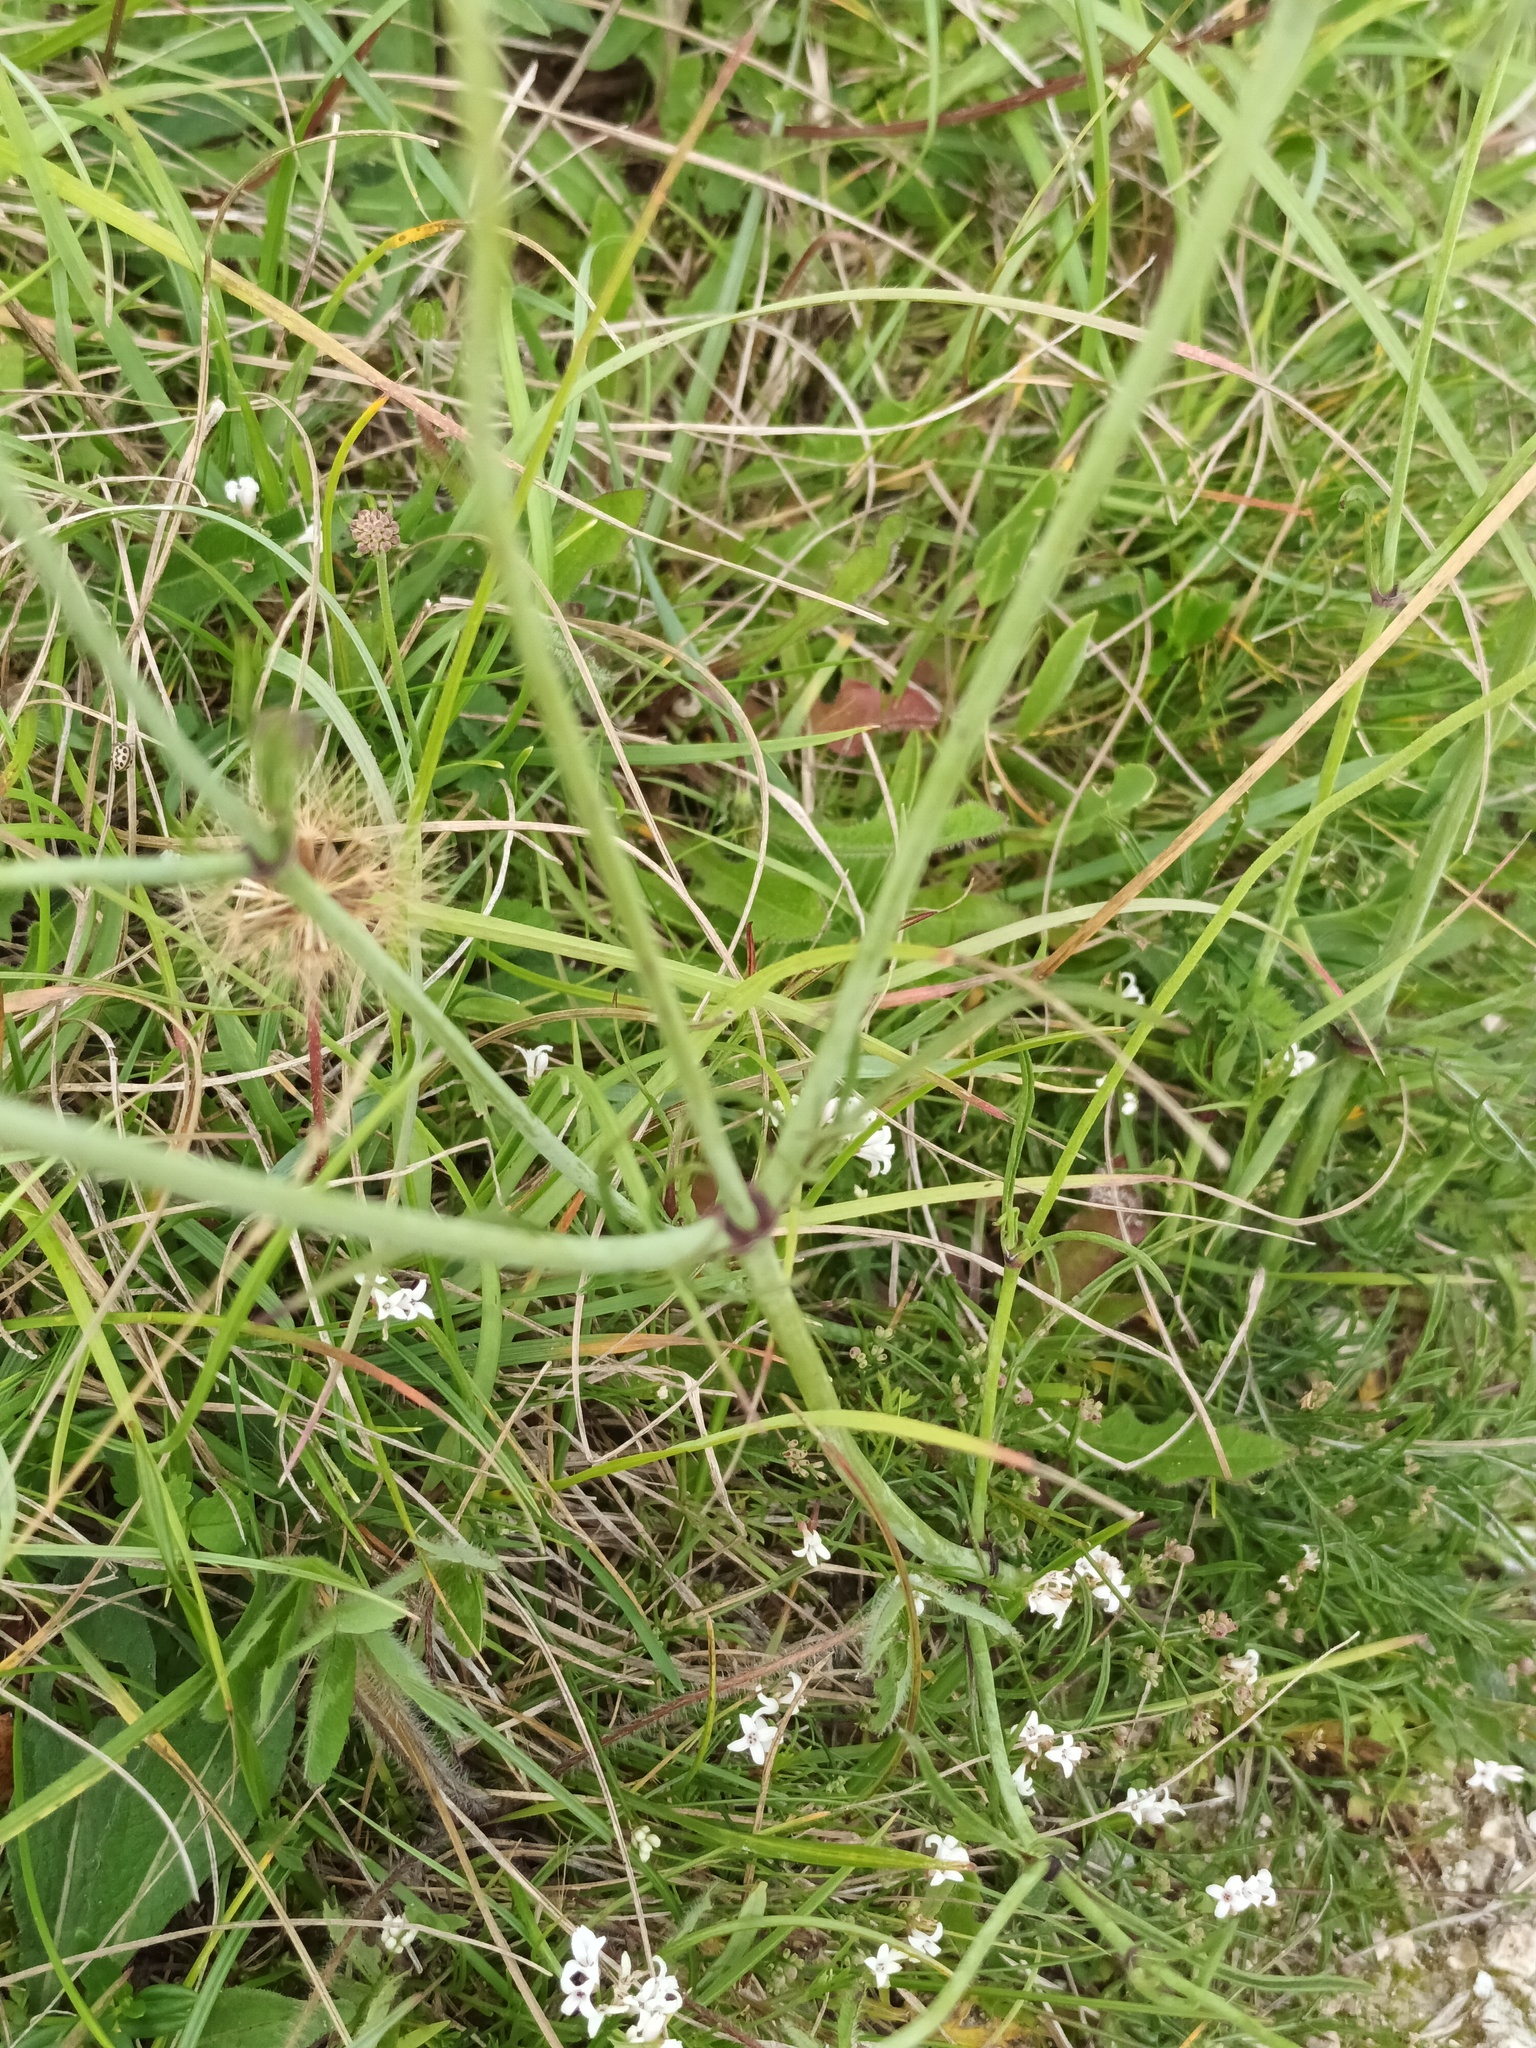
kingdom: Plantae
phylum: Tracheophyta
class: Magnoliopsida
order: Dipsacales
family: Caprifoliaceae
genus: Scabiosa
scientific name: Scabiosa columbaria
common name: Small scabious
